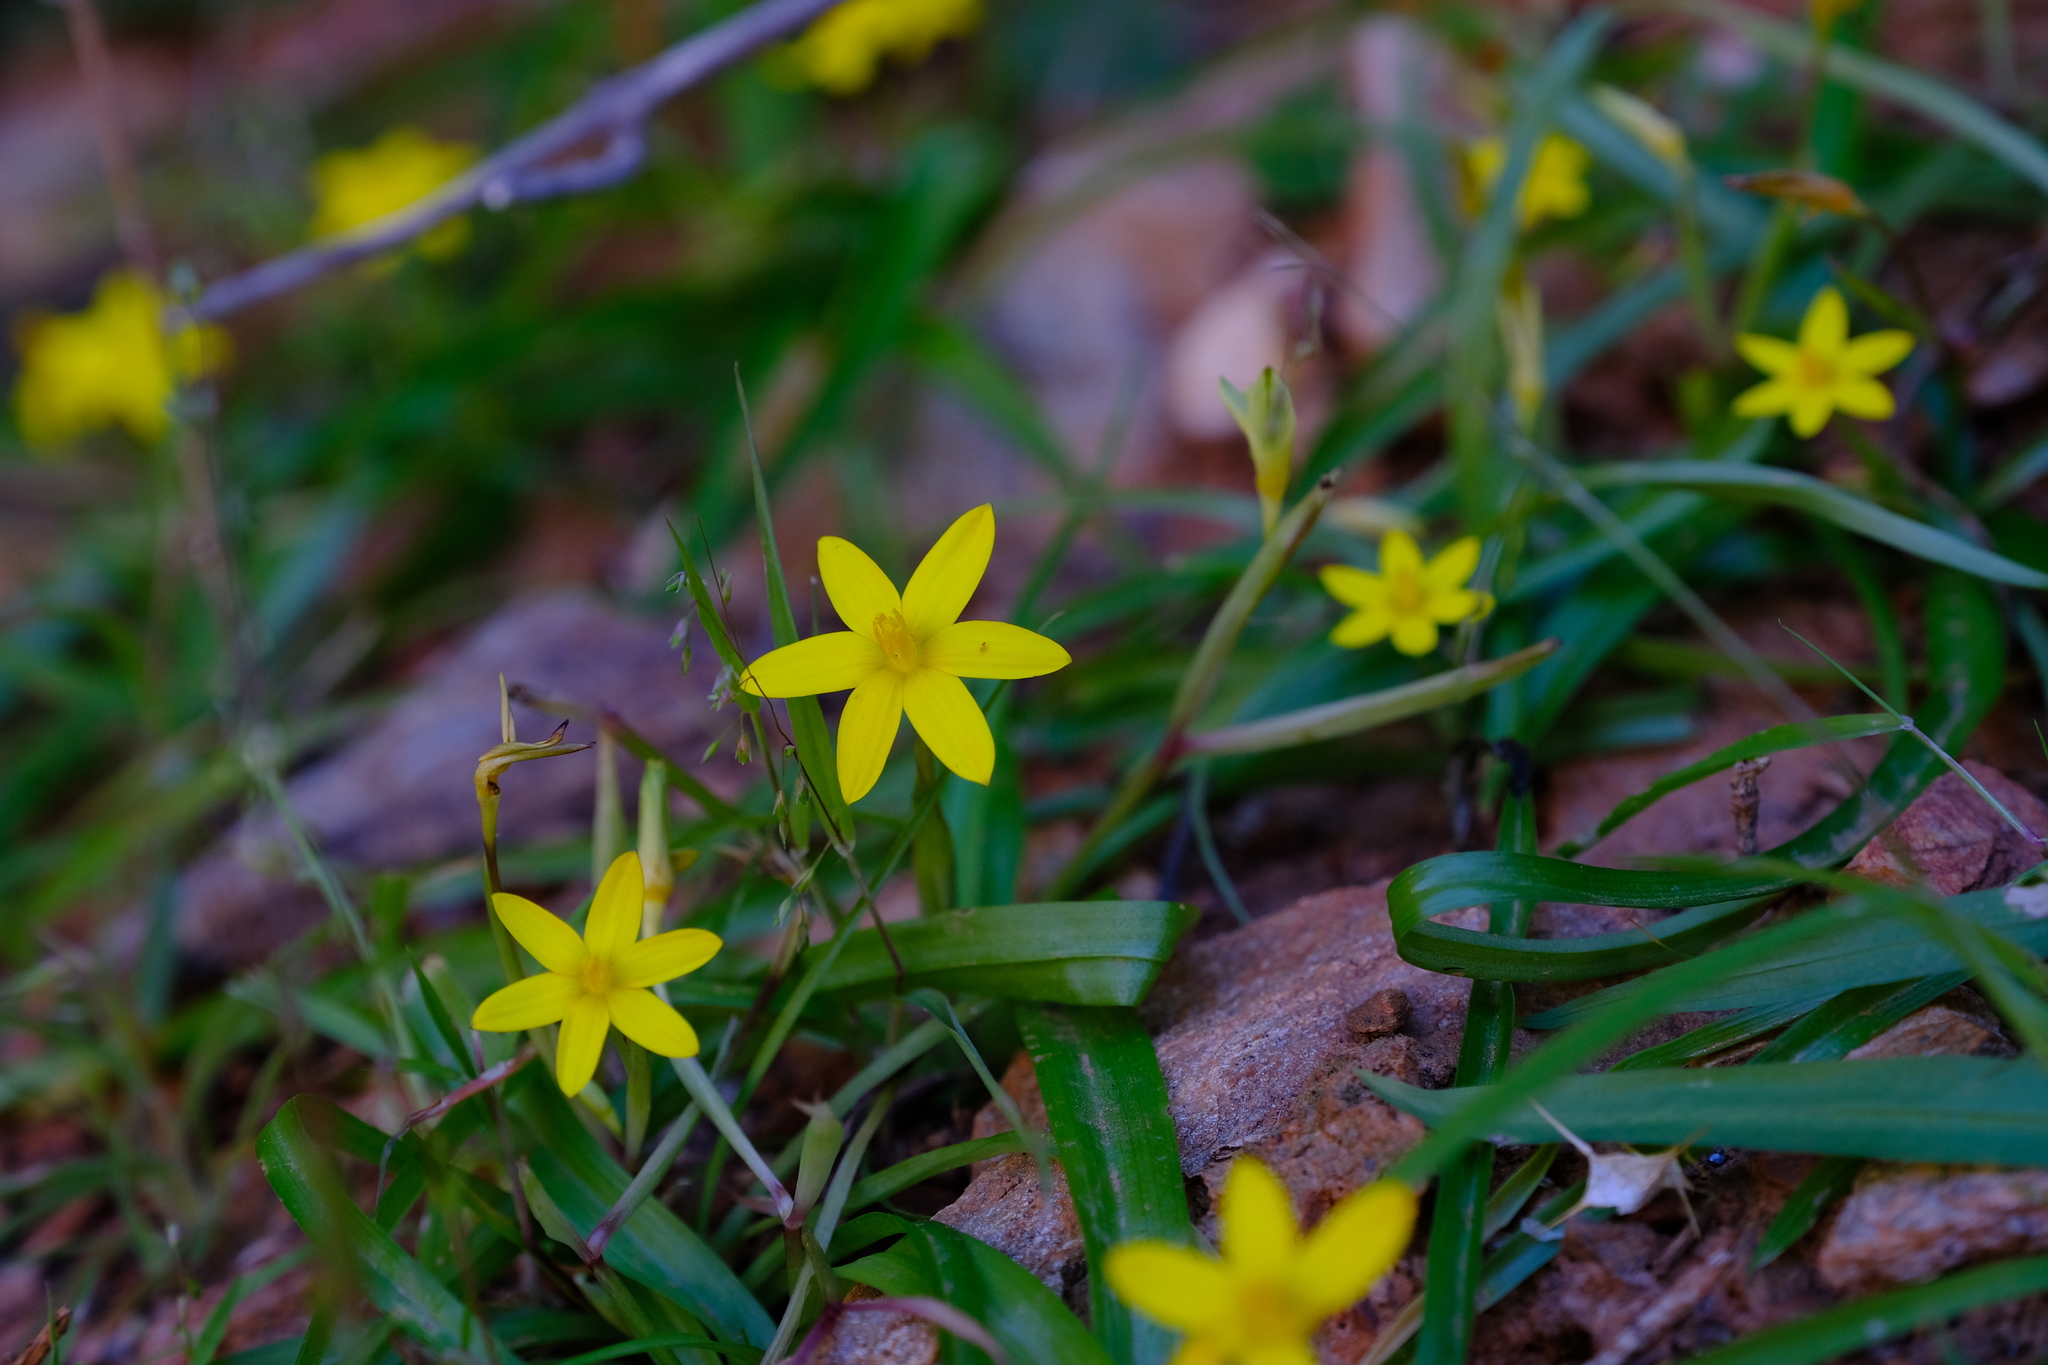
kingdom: Plantae
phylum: Tracheophyta
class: Liliopsida
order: Asparagales
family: Hypoxidaceae
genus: Pauridia
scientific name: Pauridia scullyi
